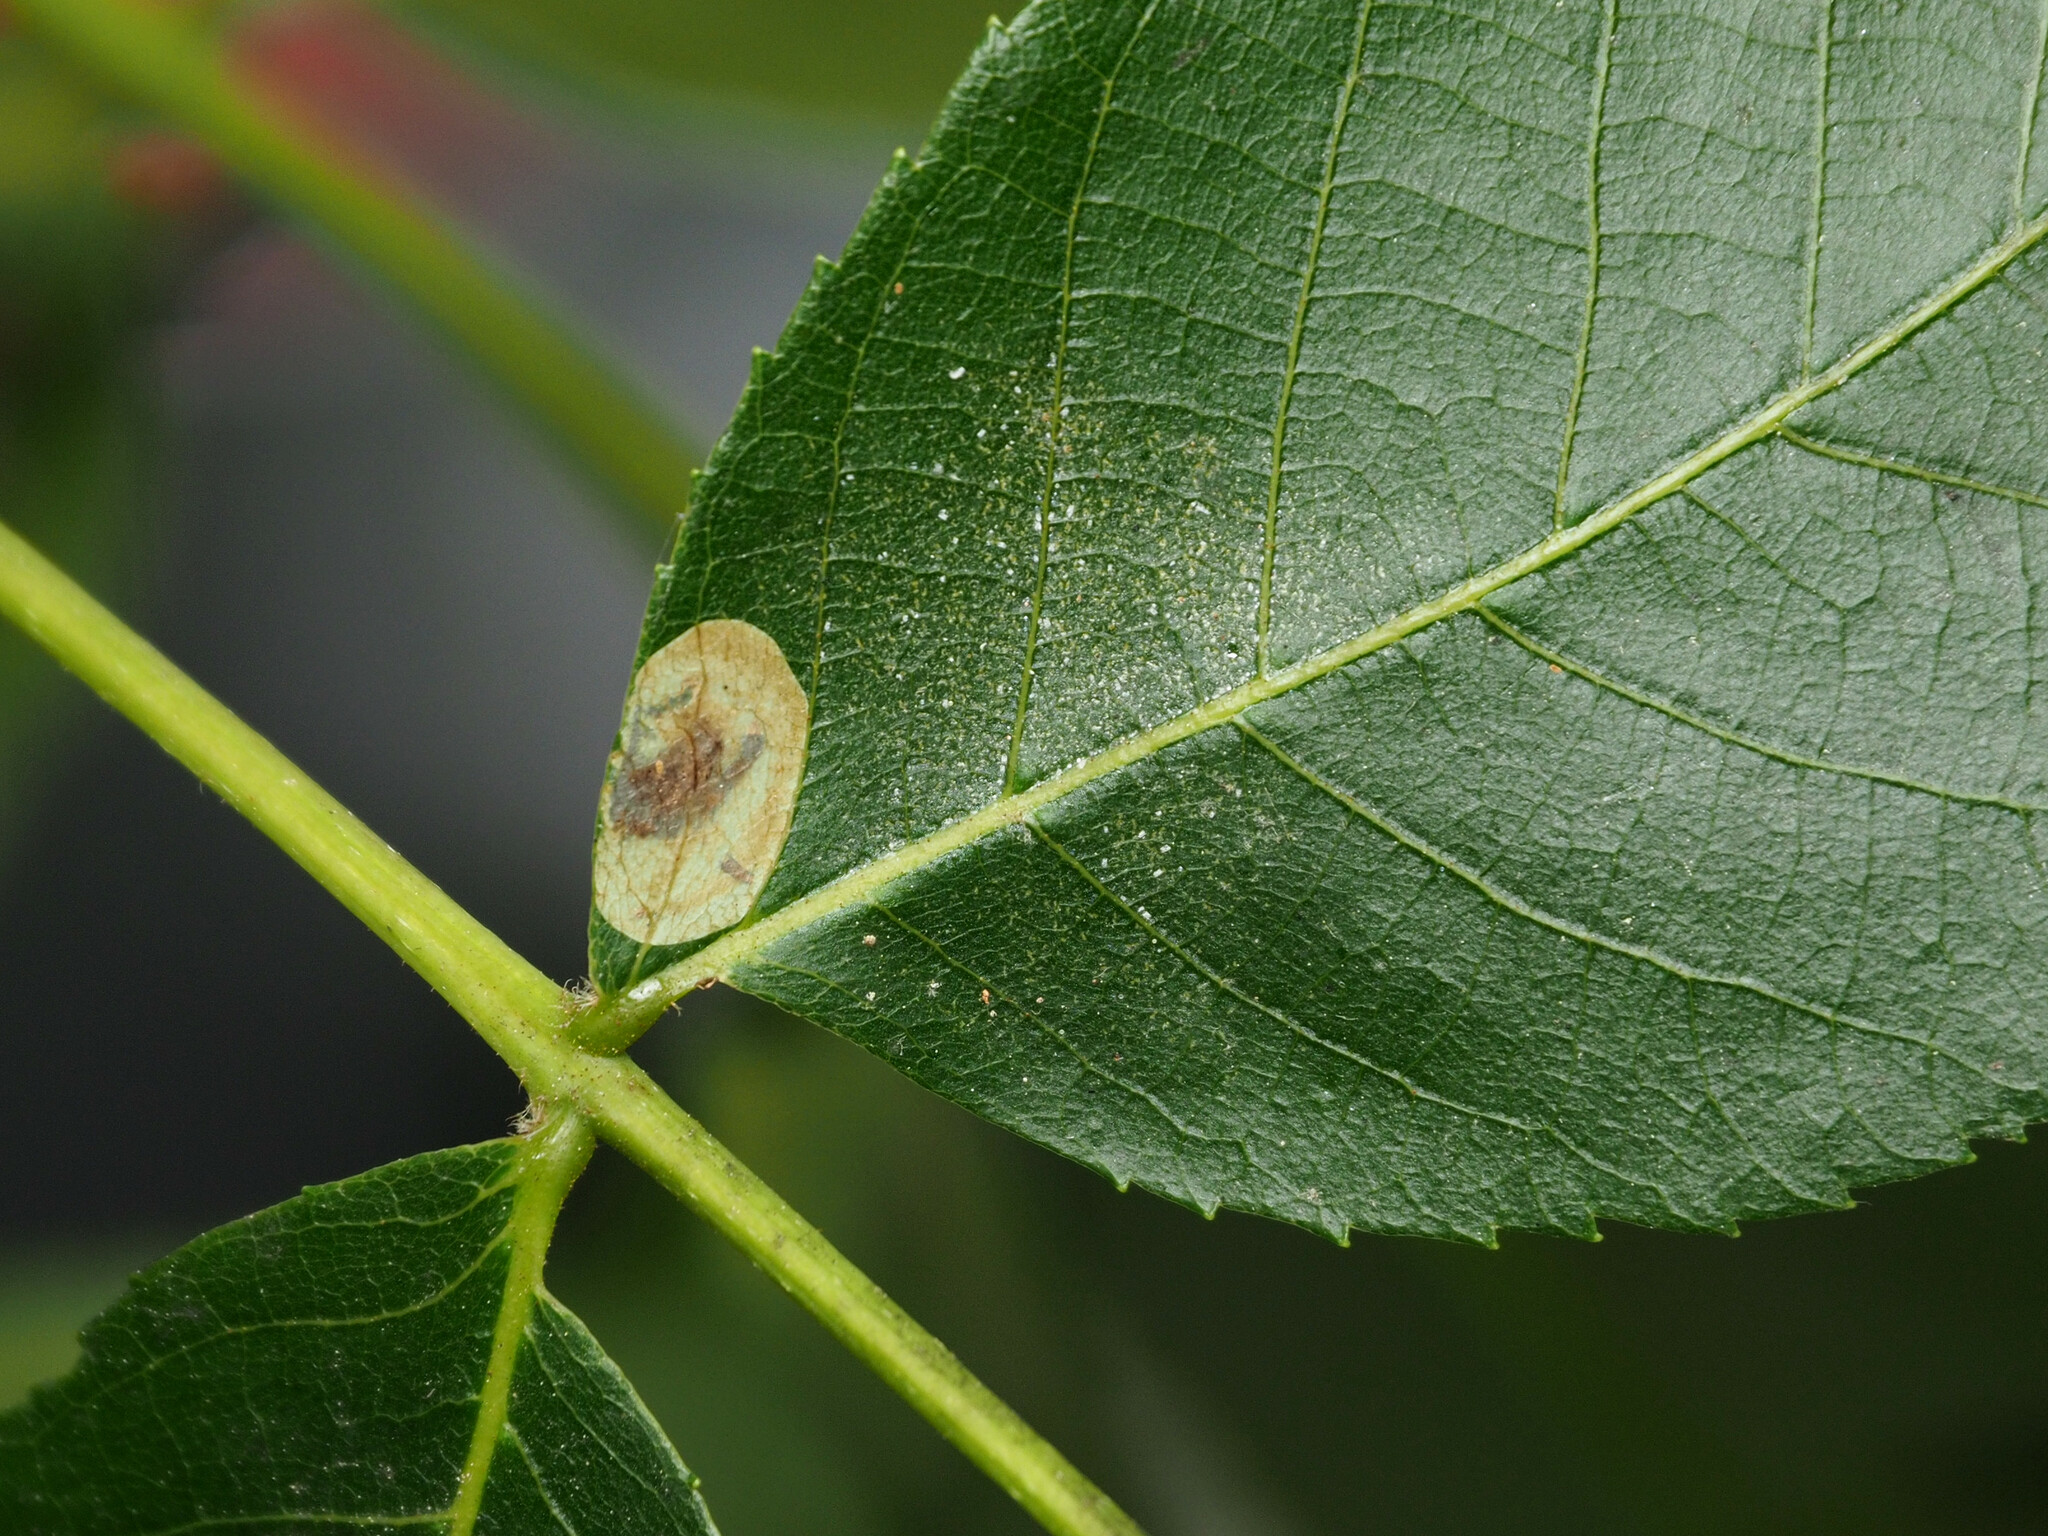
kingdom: Animalia
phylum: Arthropoda
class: Insecta
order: Lepidoptera
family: Gracillariidae
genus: Cameraria
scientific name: Cameraria caryaefoliella
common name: Pecan leafminer moth
